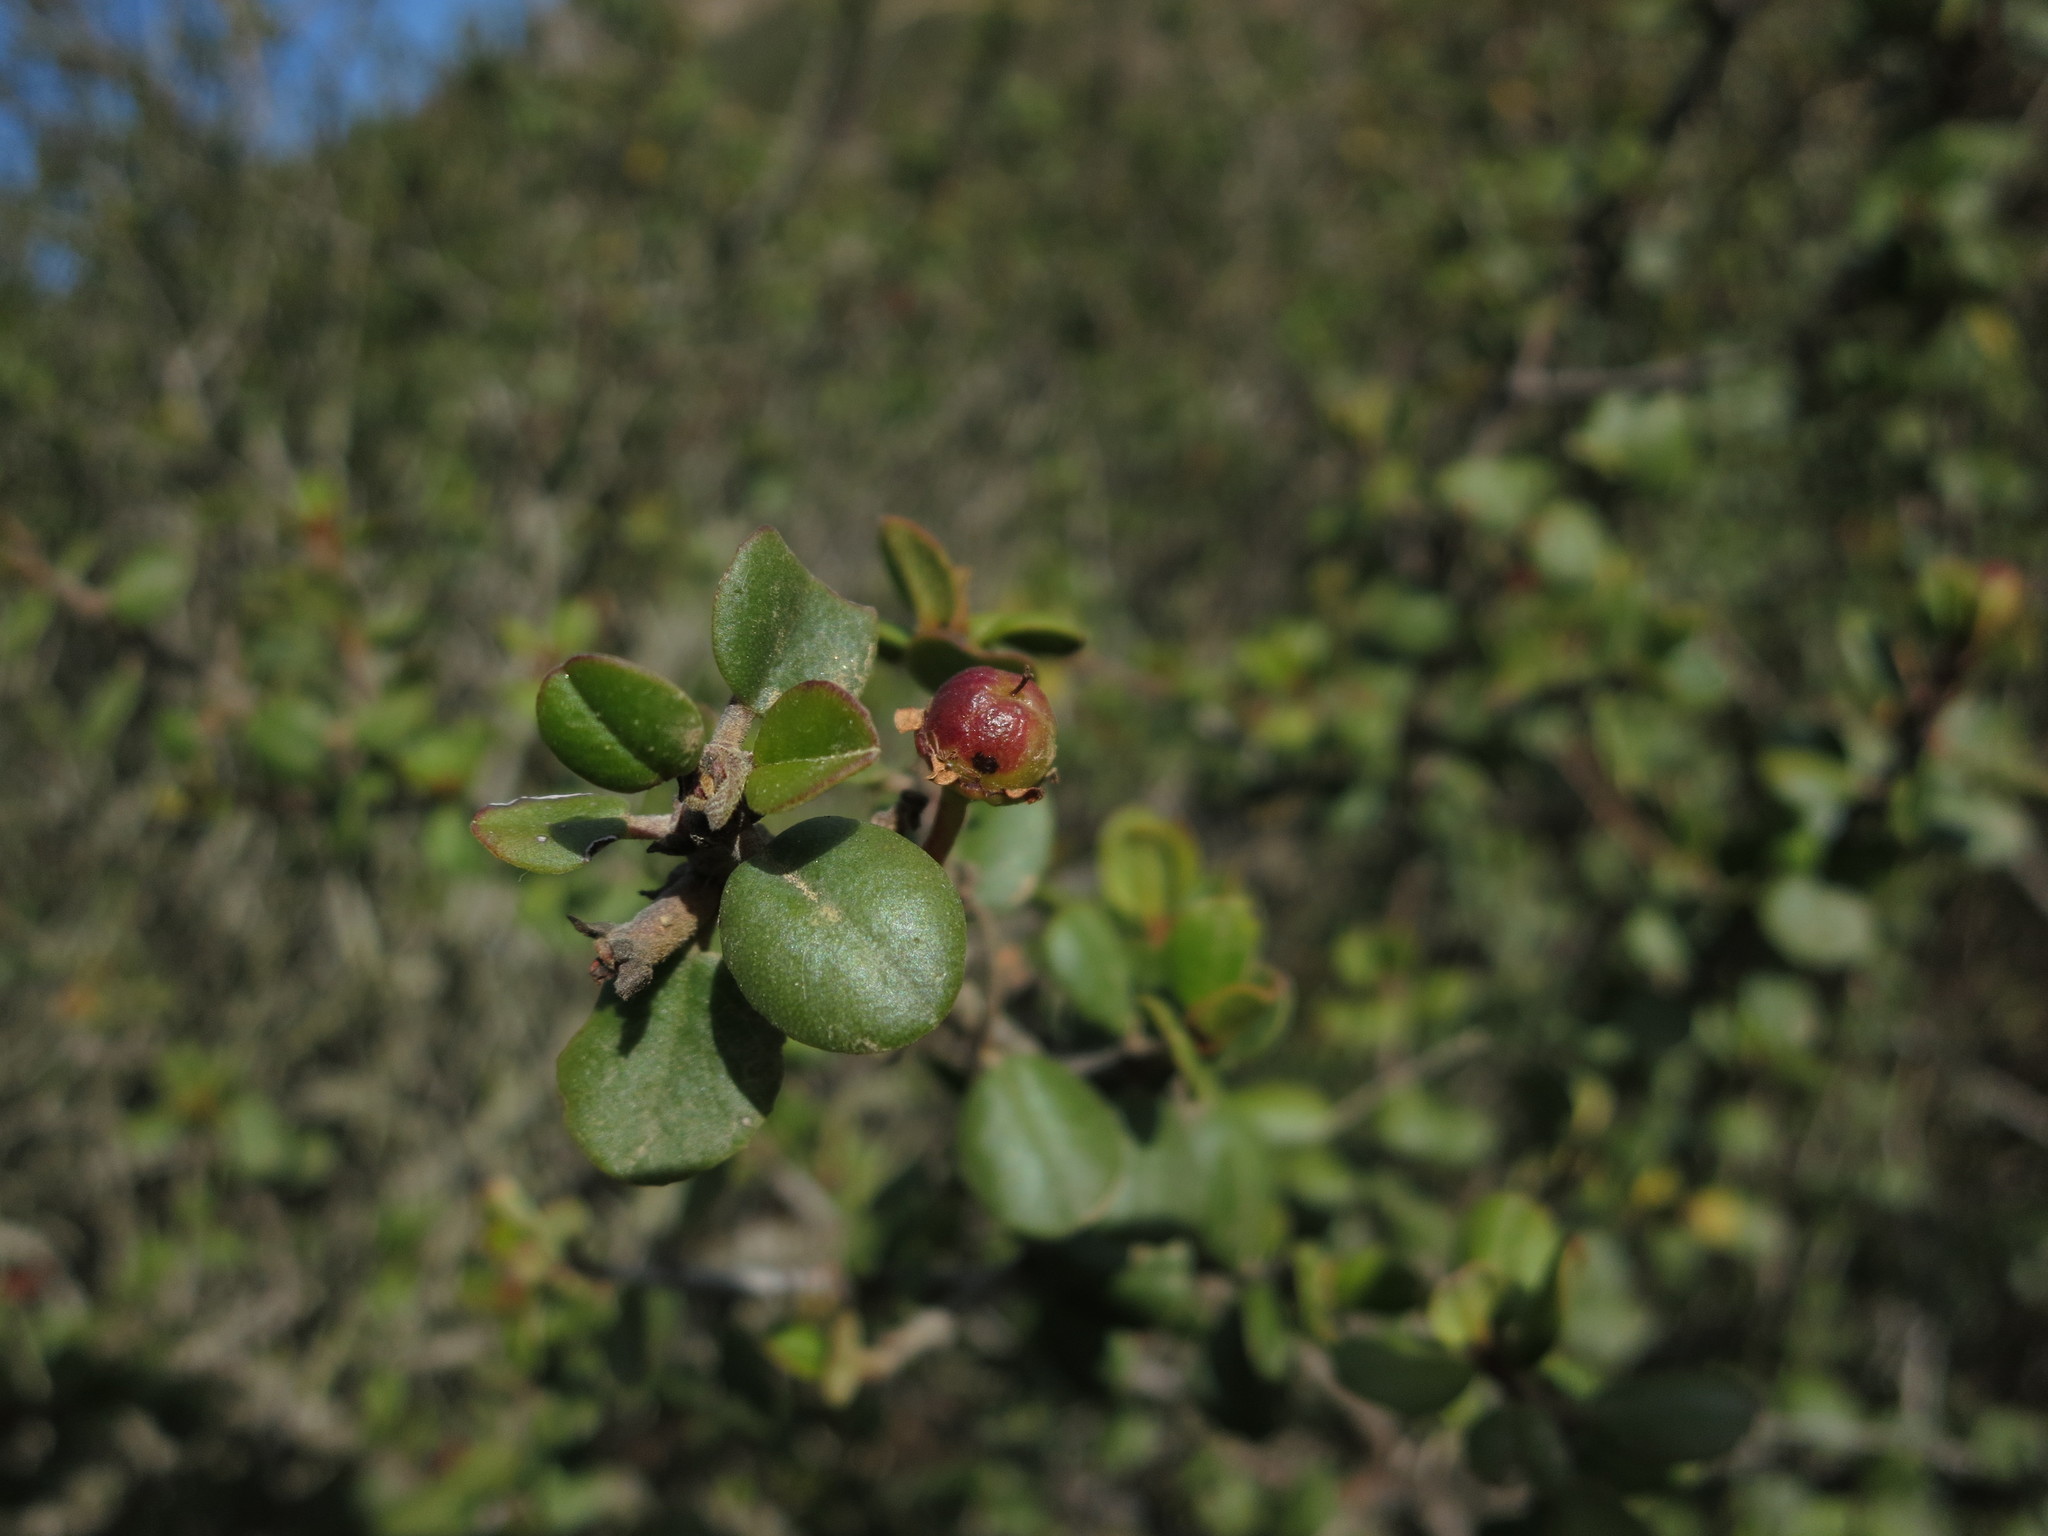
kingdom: Plantae
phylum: Tracheophyta
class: Magnoliopsida
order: Rosales
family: Rhamnaceae
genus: Ceanothus
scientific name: Ceanothus verrucosus
